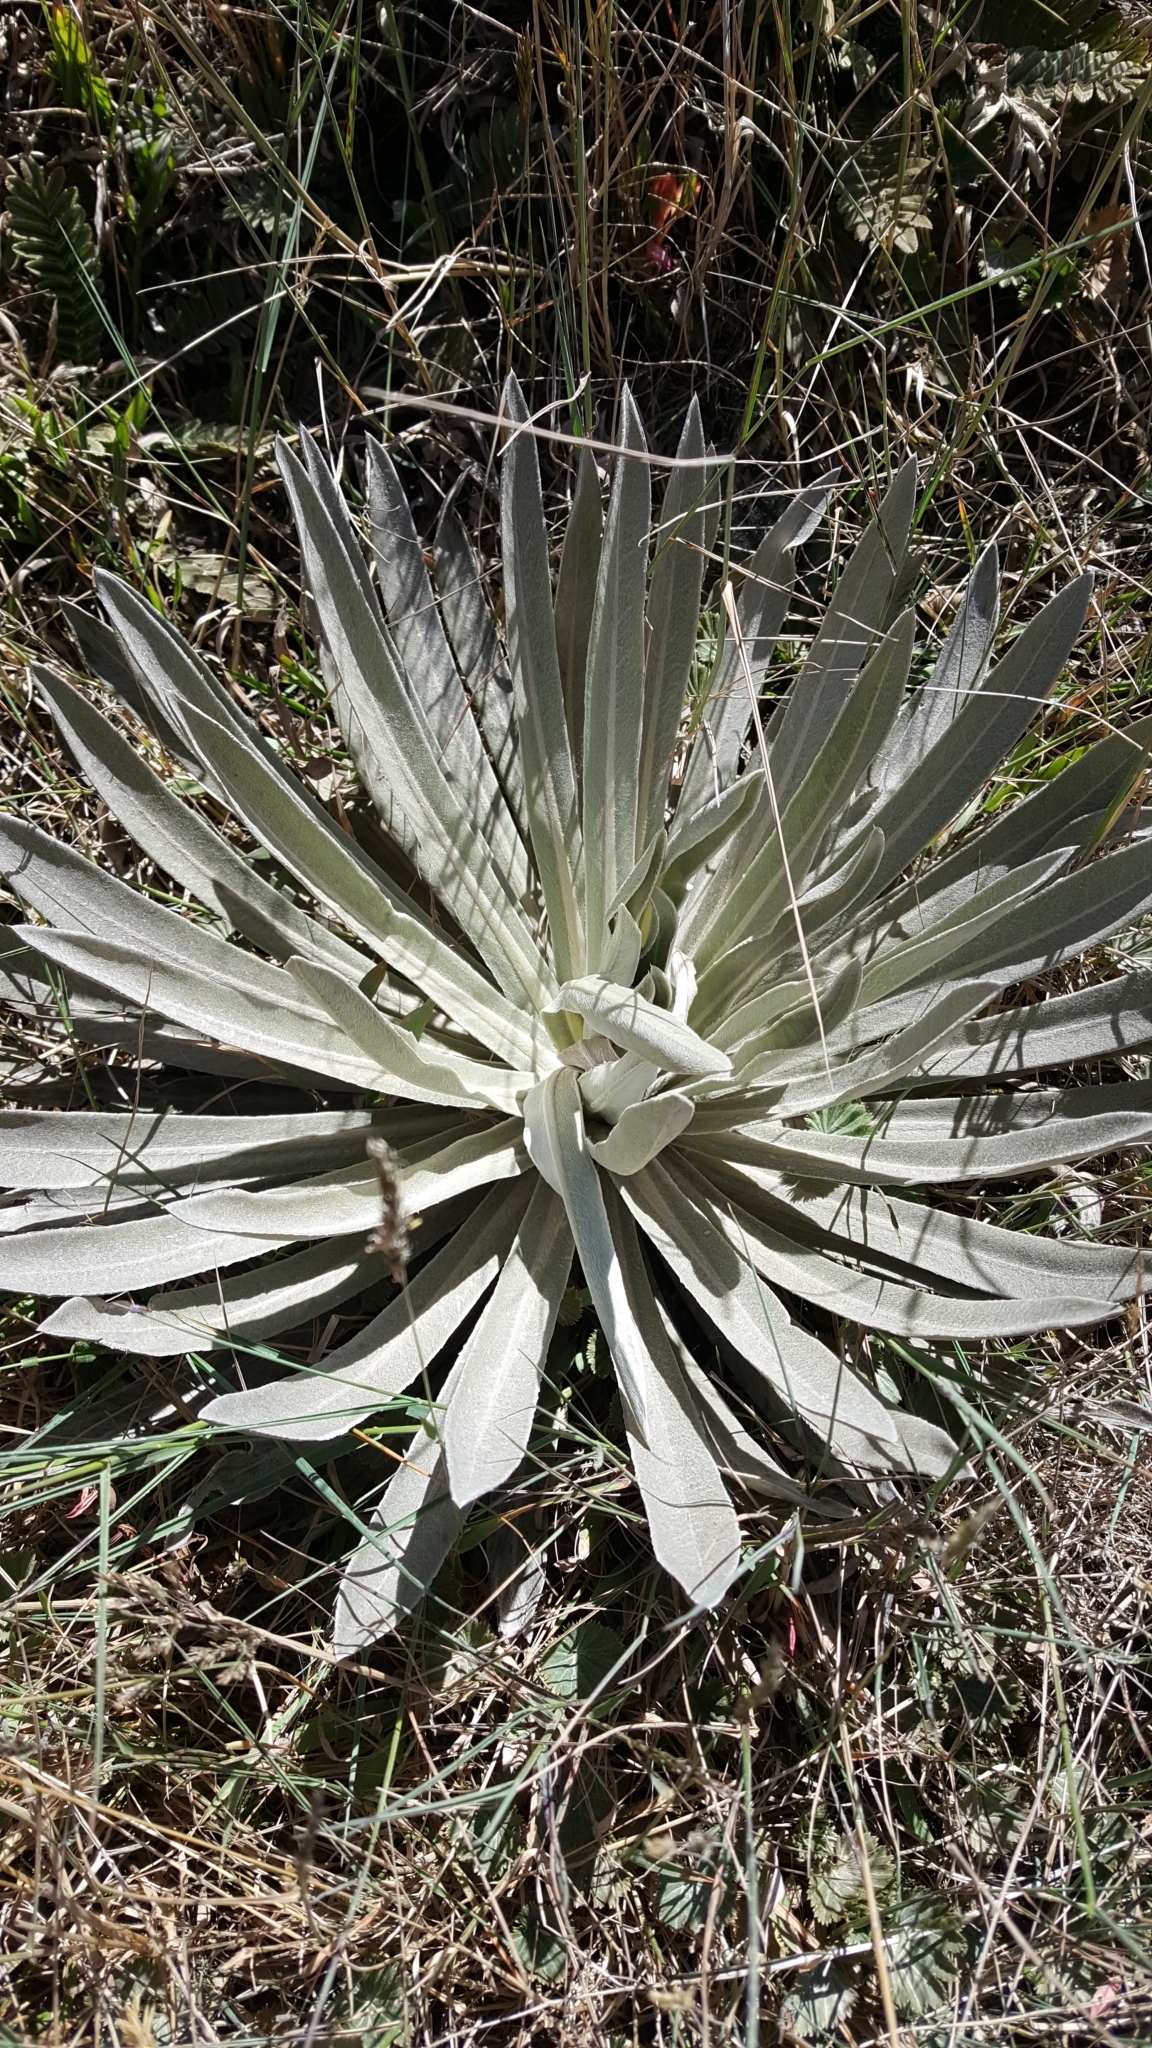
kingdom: Plantae
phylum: Tracheophyta
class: Magnoliopsida
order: Asterales
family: Asteraceae
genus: Espeletia
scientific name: Espeletia argentea
